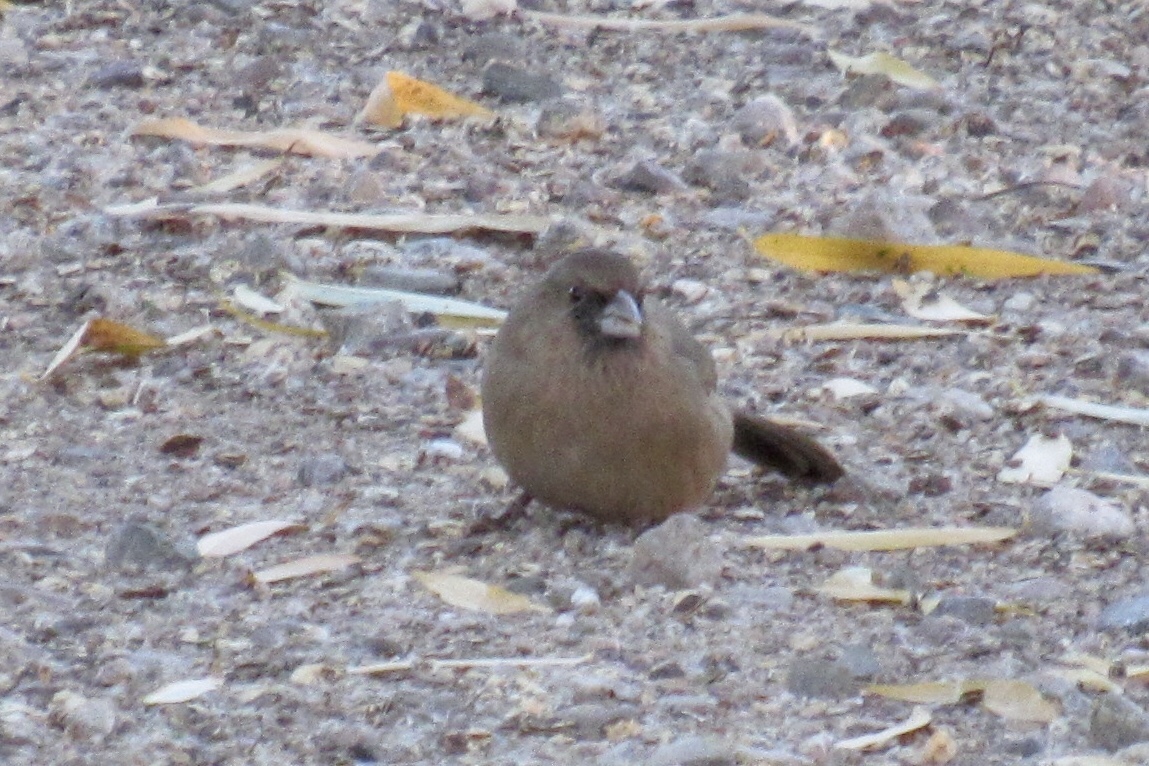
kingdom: Animalia
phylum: Chordata
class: Aves
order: Passeriformes
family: Passerellidae
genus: Melozone
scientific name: Melozone aberti
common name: Abert's towhee
